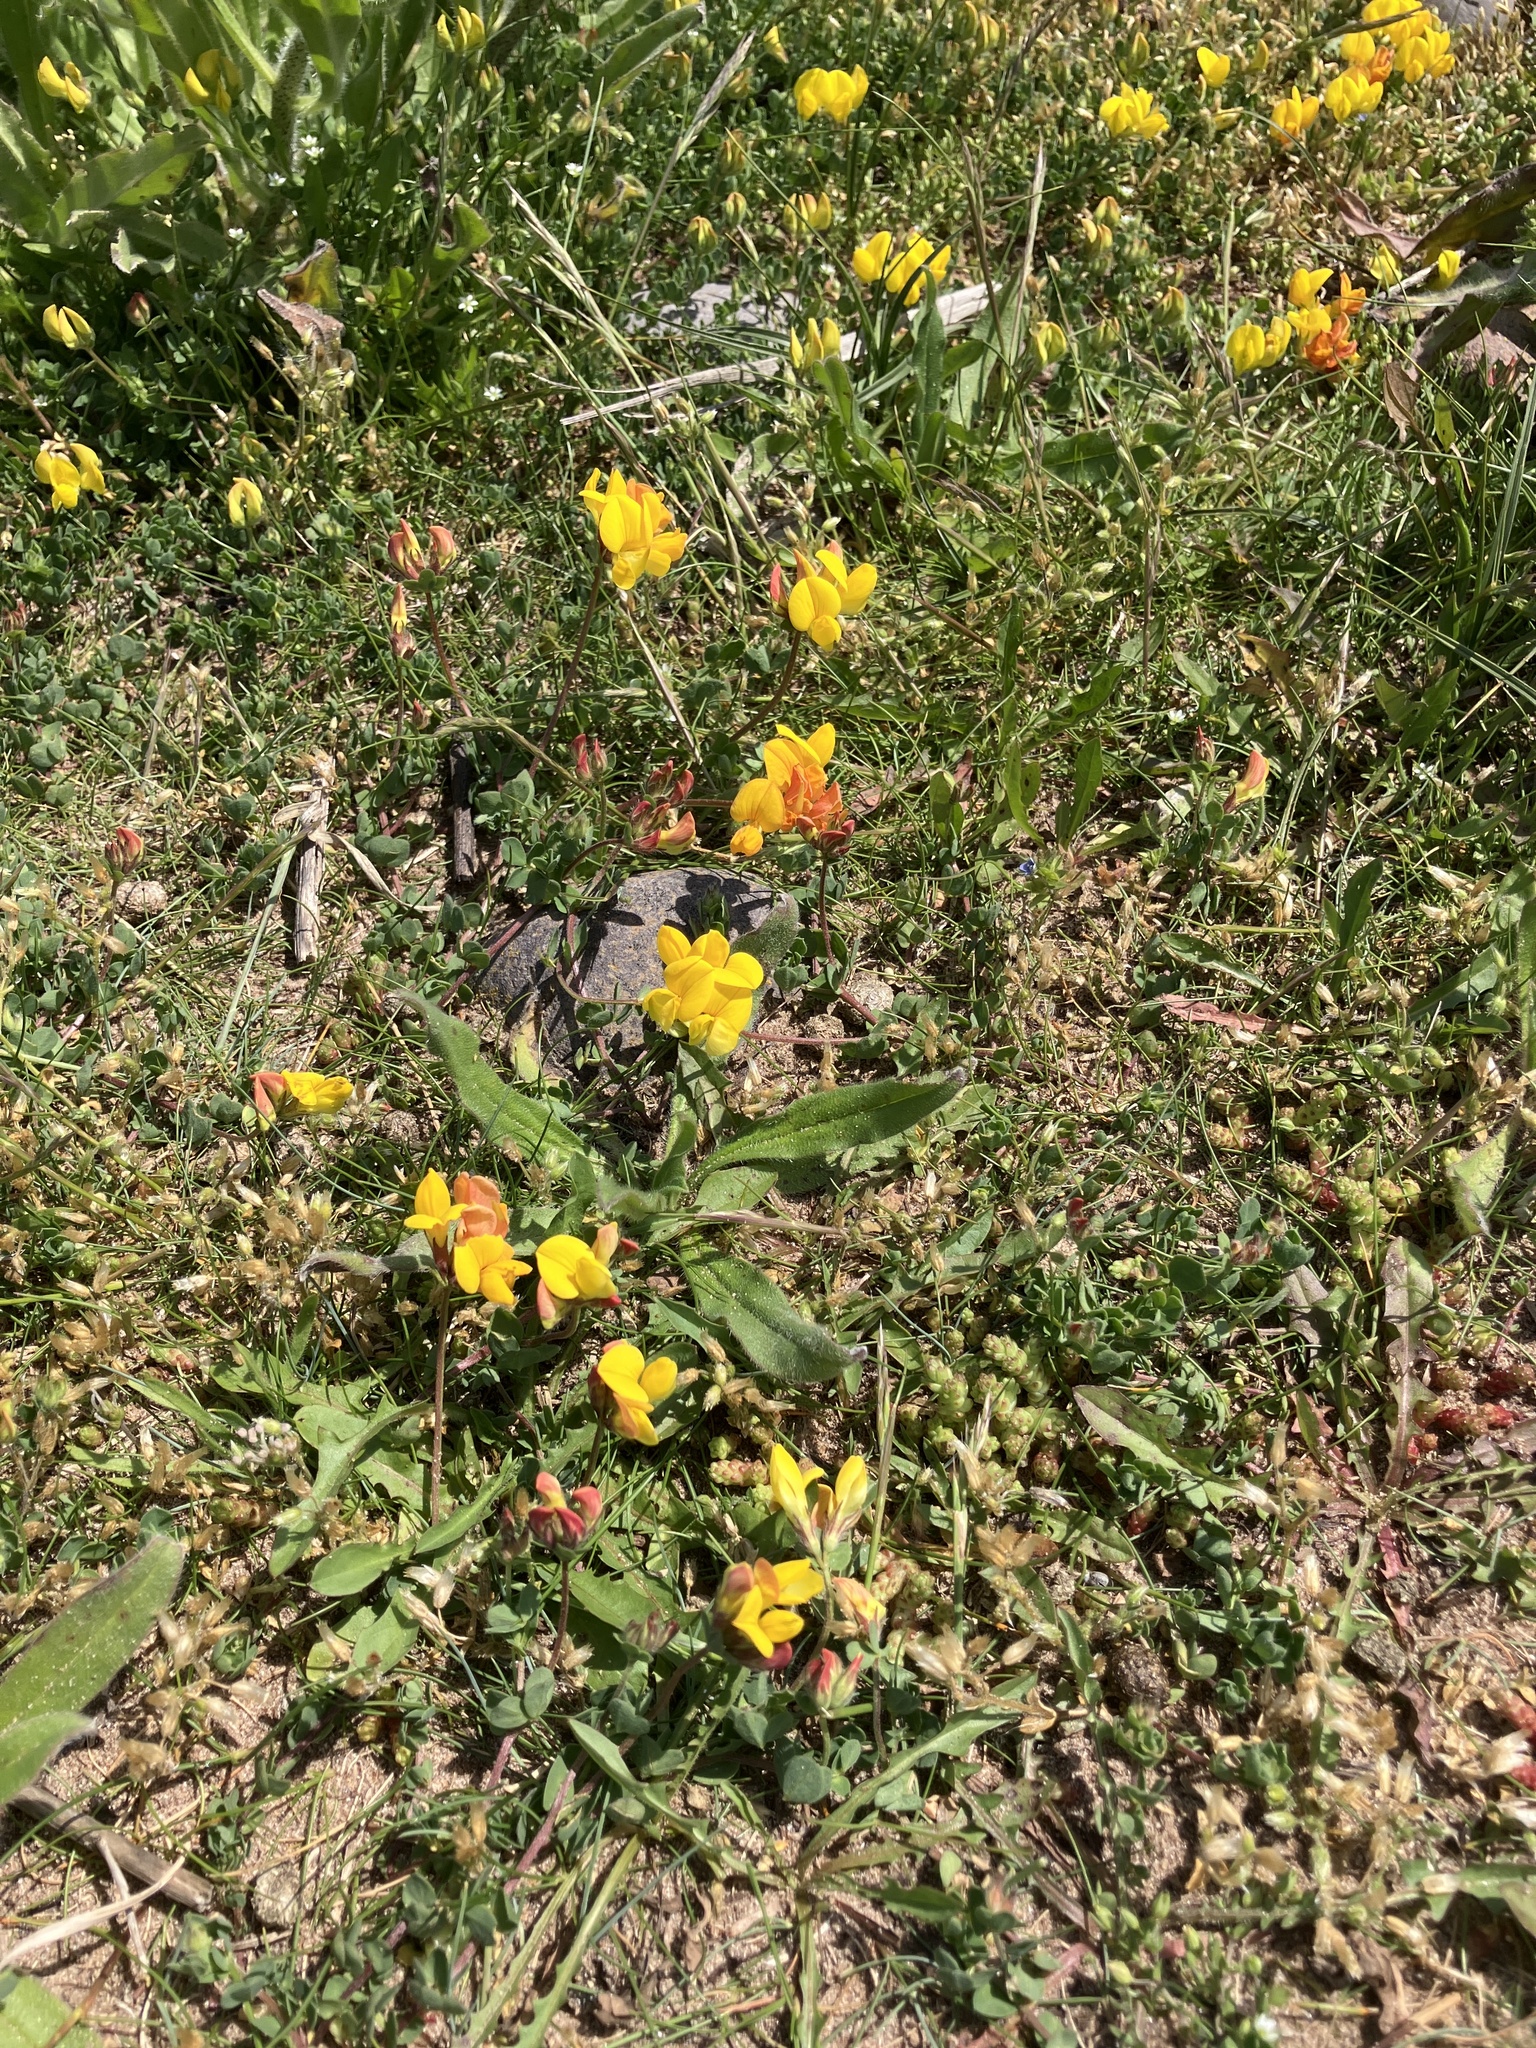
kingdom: Plantae
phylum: Tracheophyta
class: Magnoliopsida
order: Fabales
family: Fabaceae
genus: Lotus
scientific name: Lotus corniculatus
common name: Common bird's-foot-trefoil
